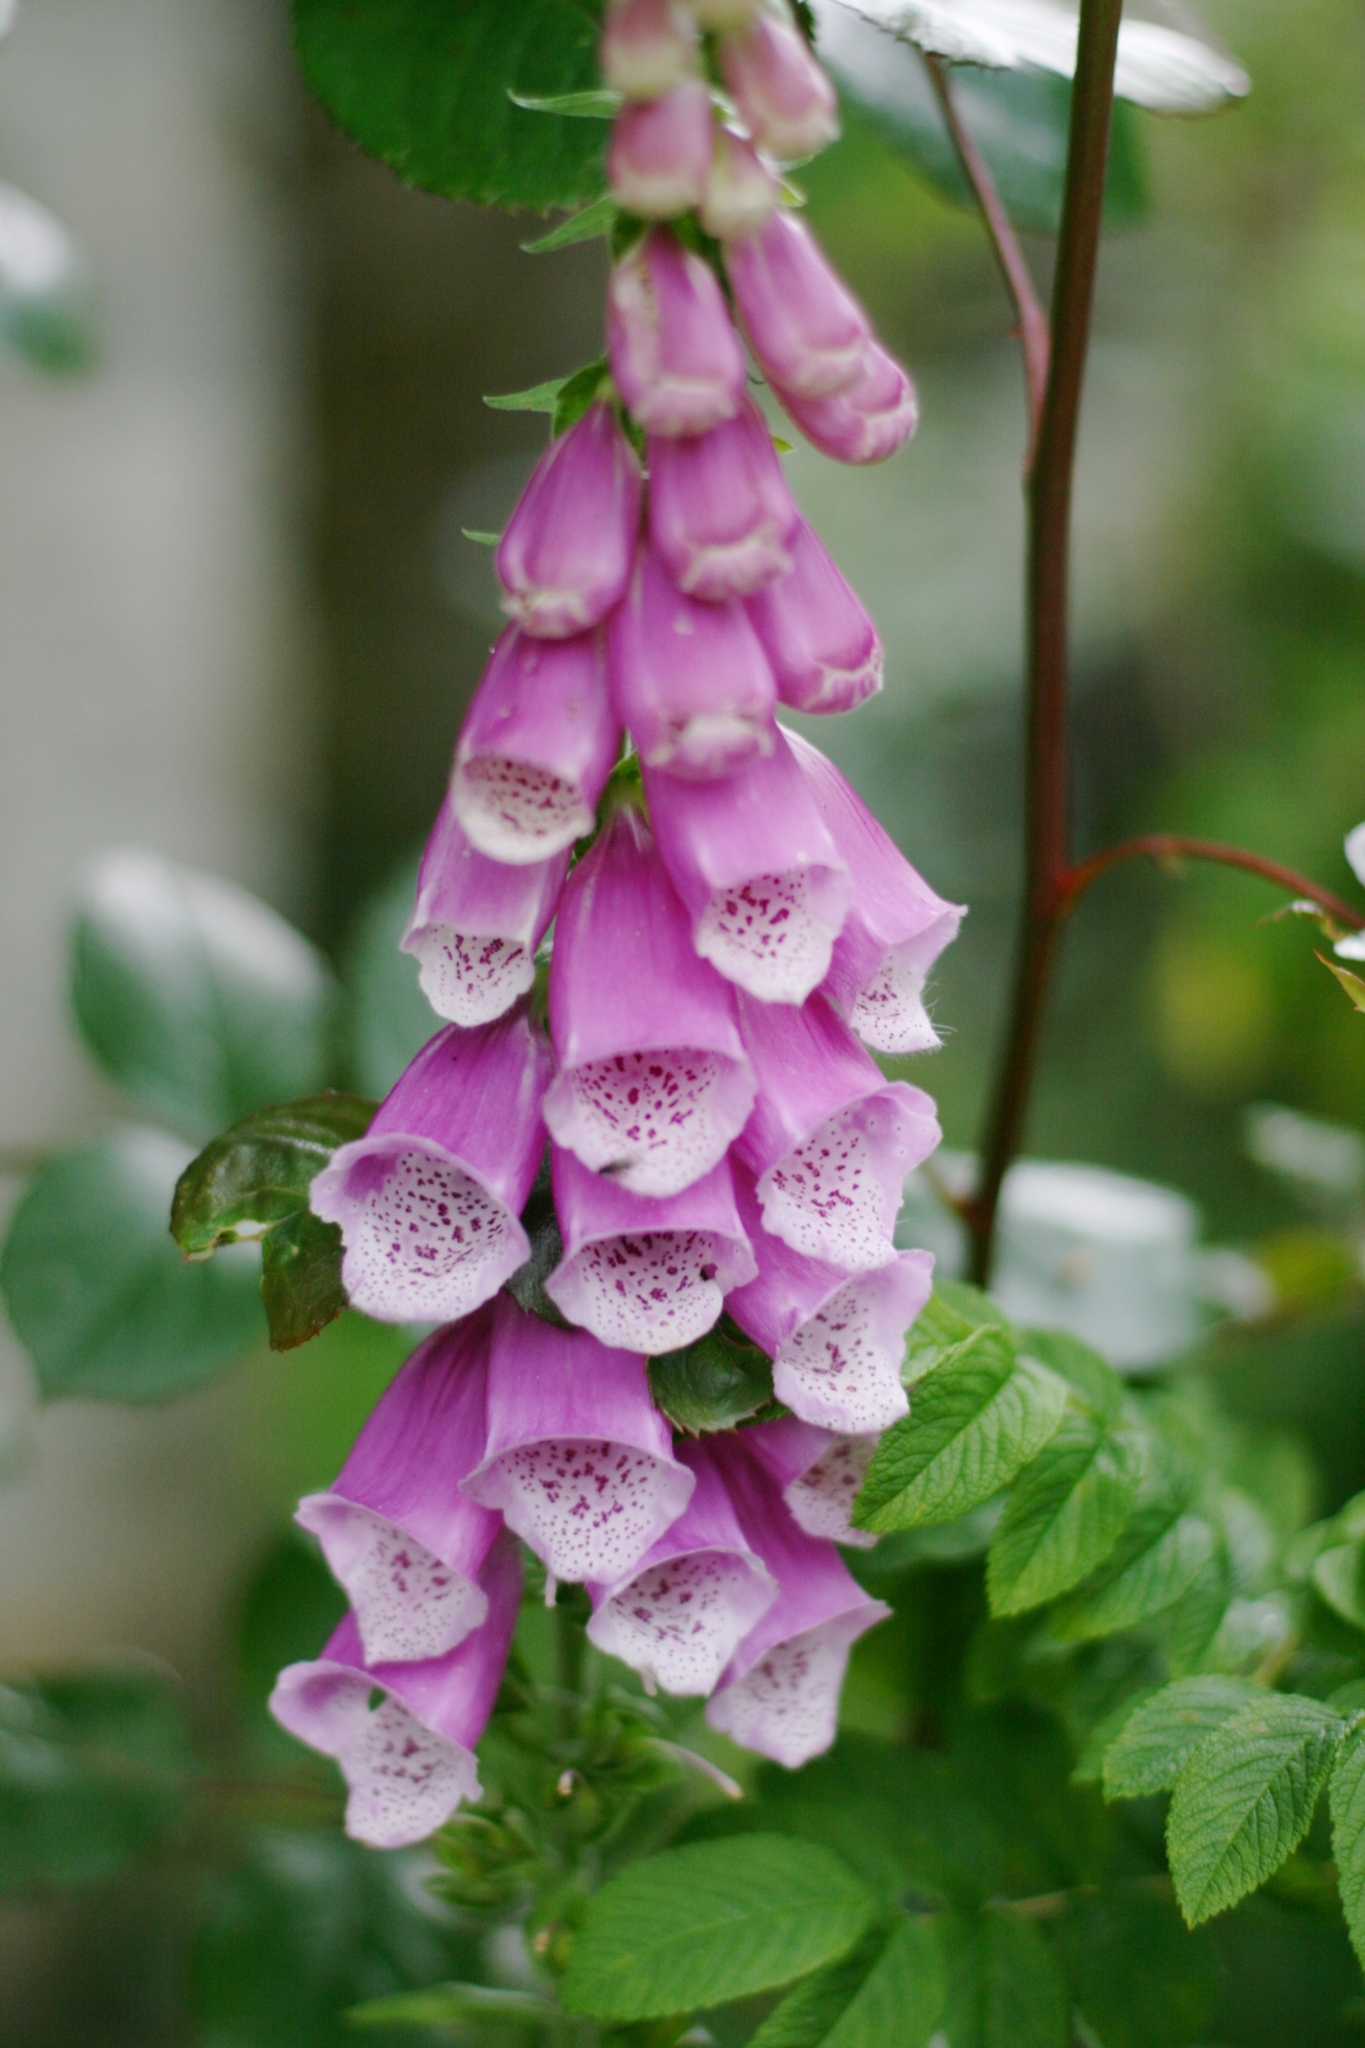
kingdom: Plantae
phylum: Tracheophyta
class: Magnoliopsida
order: Lamiales
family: Plantaginaceae
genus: Digitalis
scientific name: Digitalis purpurea
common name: Foxglove
